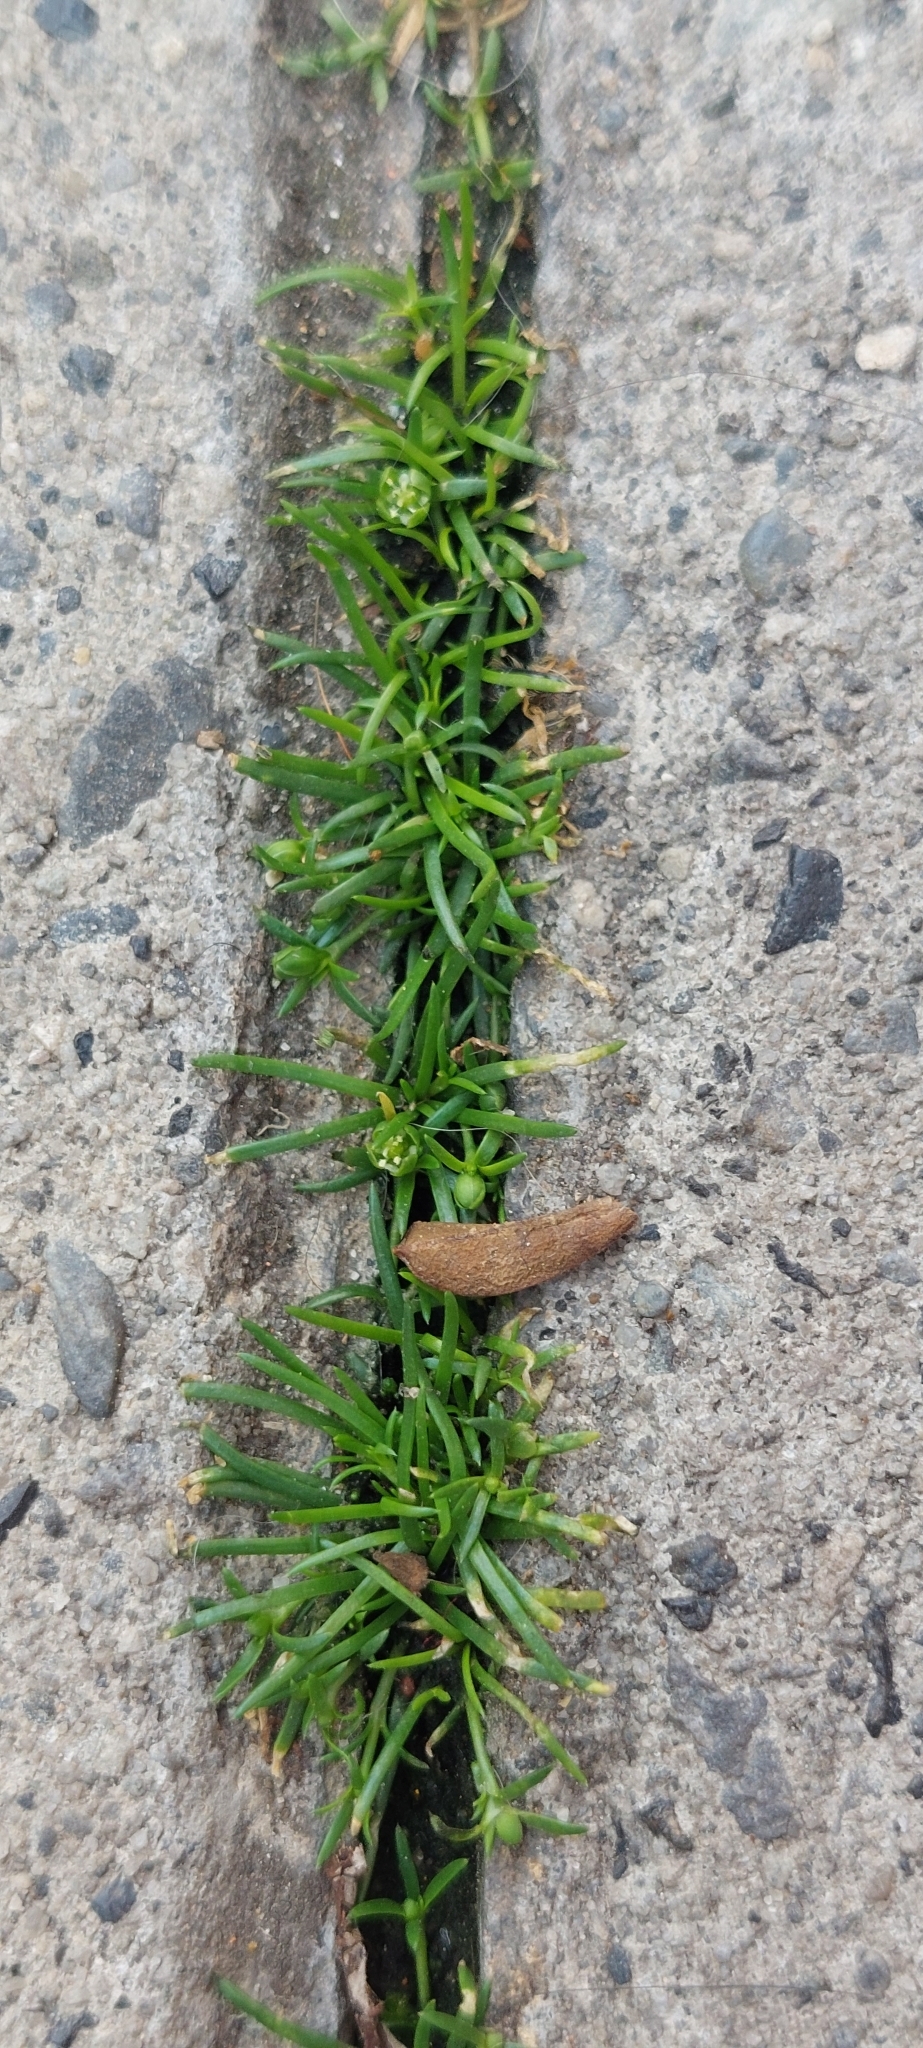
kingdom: Plantae
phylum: Tracheophyta
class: Magnoliopsida
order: Caryophyllales
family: Caryophyllaceae
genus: Sagina
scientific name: Sagina procumbens
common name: Procumbent pearlwort
